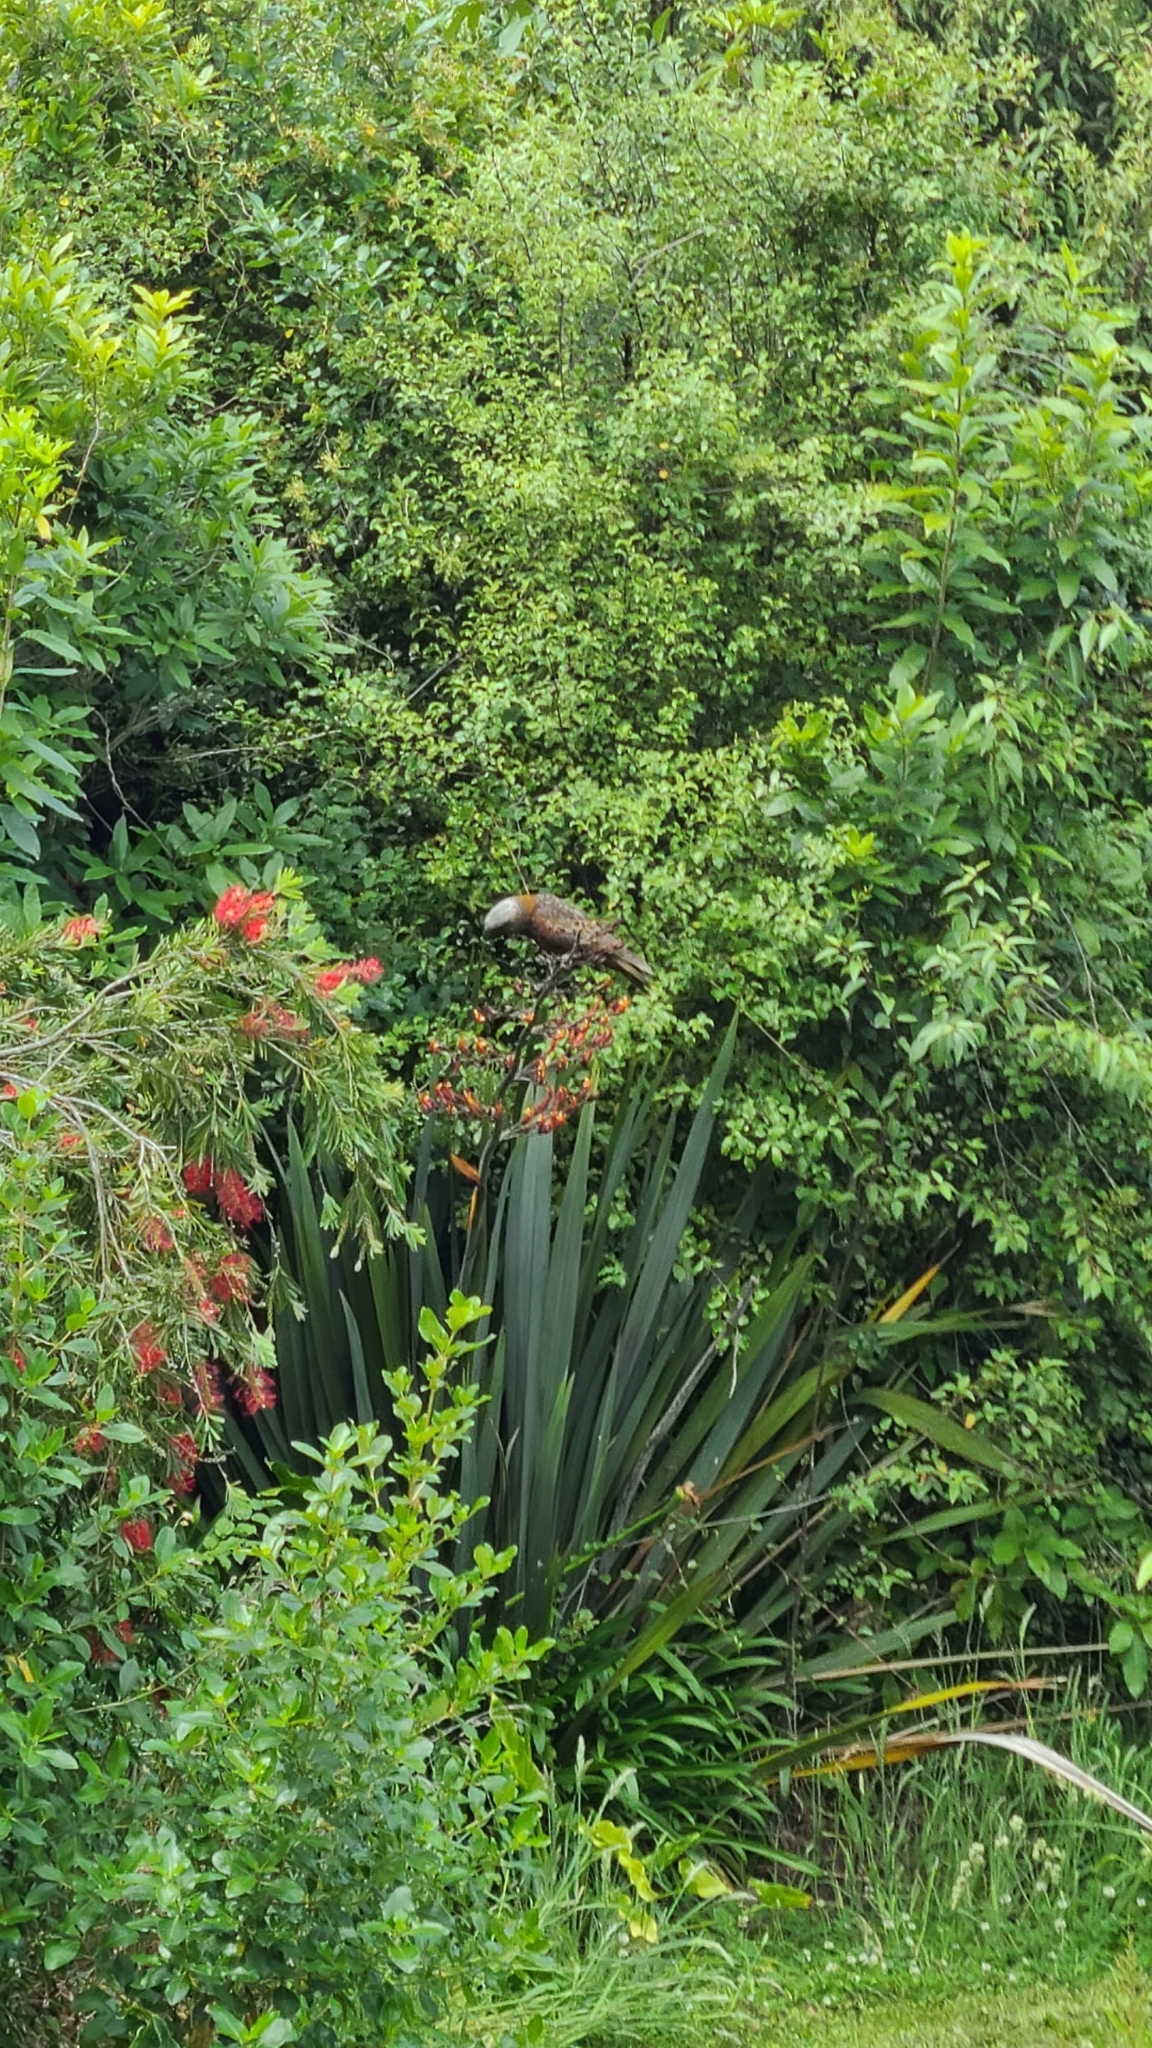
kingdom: Animalia
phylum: Chordata
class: Aves
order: Psittaciformes
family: Psittacidae
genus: Nestor
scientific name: Nestor meridionalis
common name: New zealand kaka
